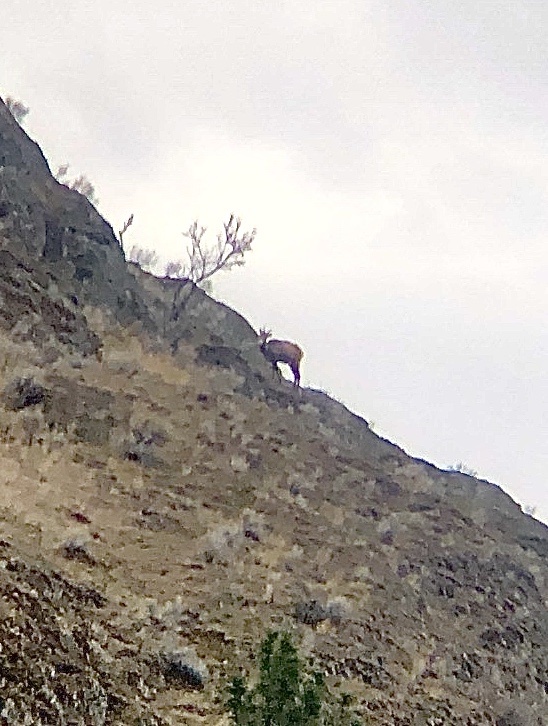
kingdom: Animalia
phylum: Chordata
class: Mammalia
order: Artiodactyla
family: Bovidae
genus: Ovis
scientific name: Ovis canadensis
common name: Bighorn sheep
